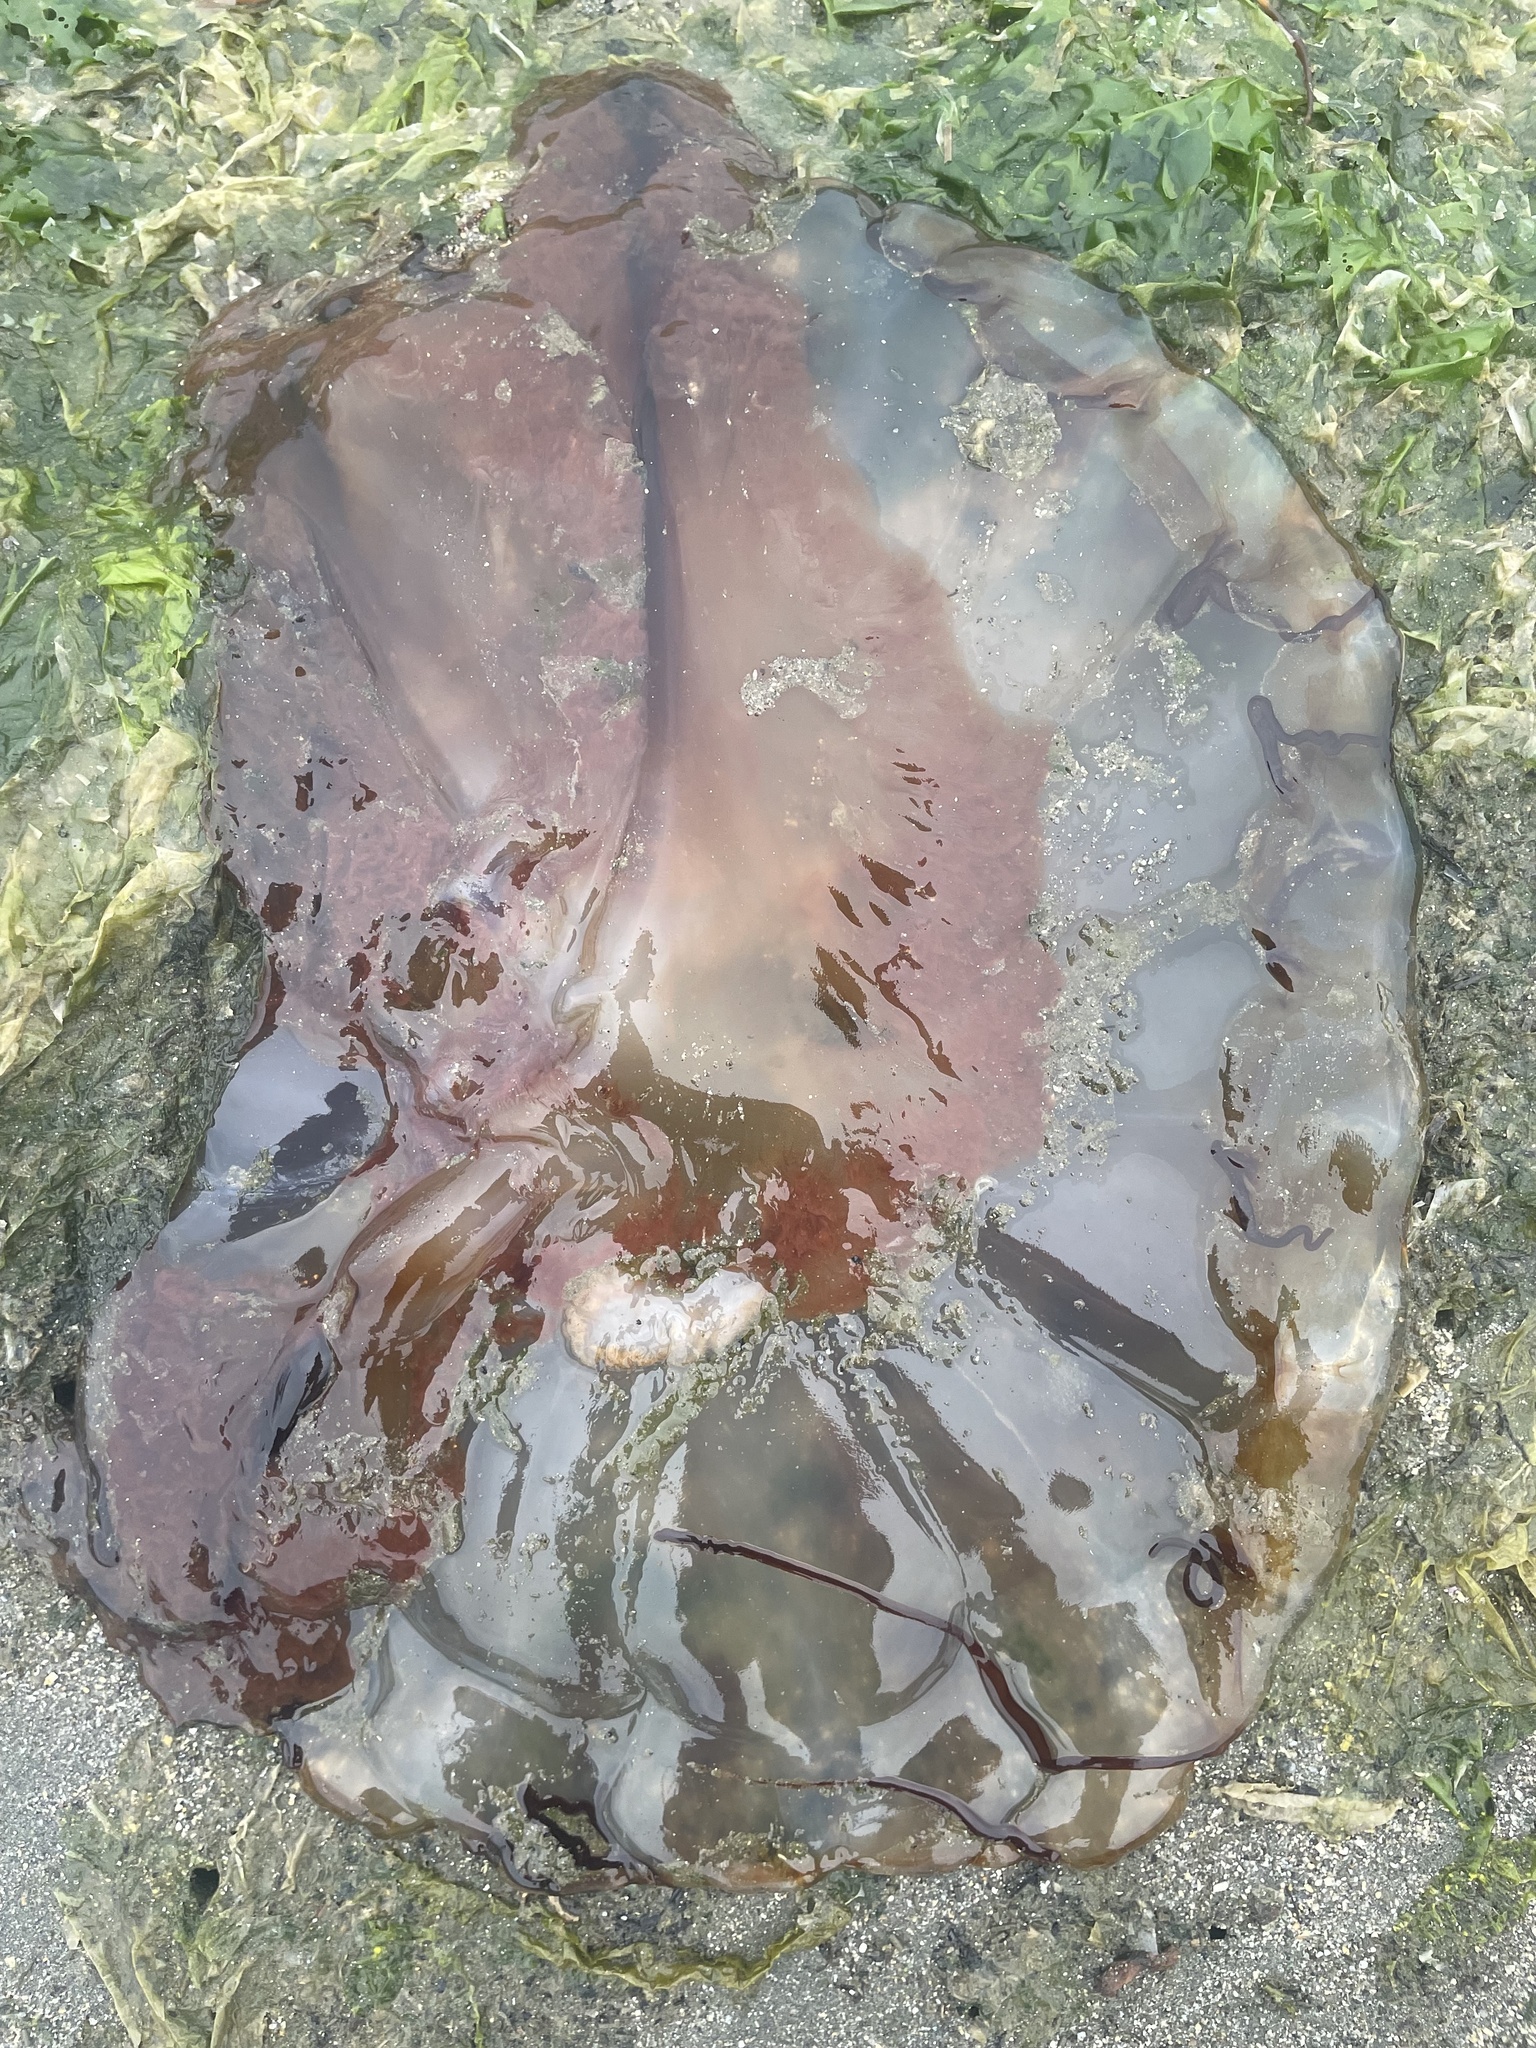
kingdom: Animalia
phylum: Cnidaria
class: Scyphozoa
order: Semaeostomeae
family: Pelagiidae
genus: Chrysaora
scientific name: Chrysaora fuscescens
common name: Sea nettle
